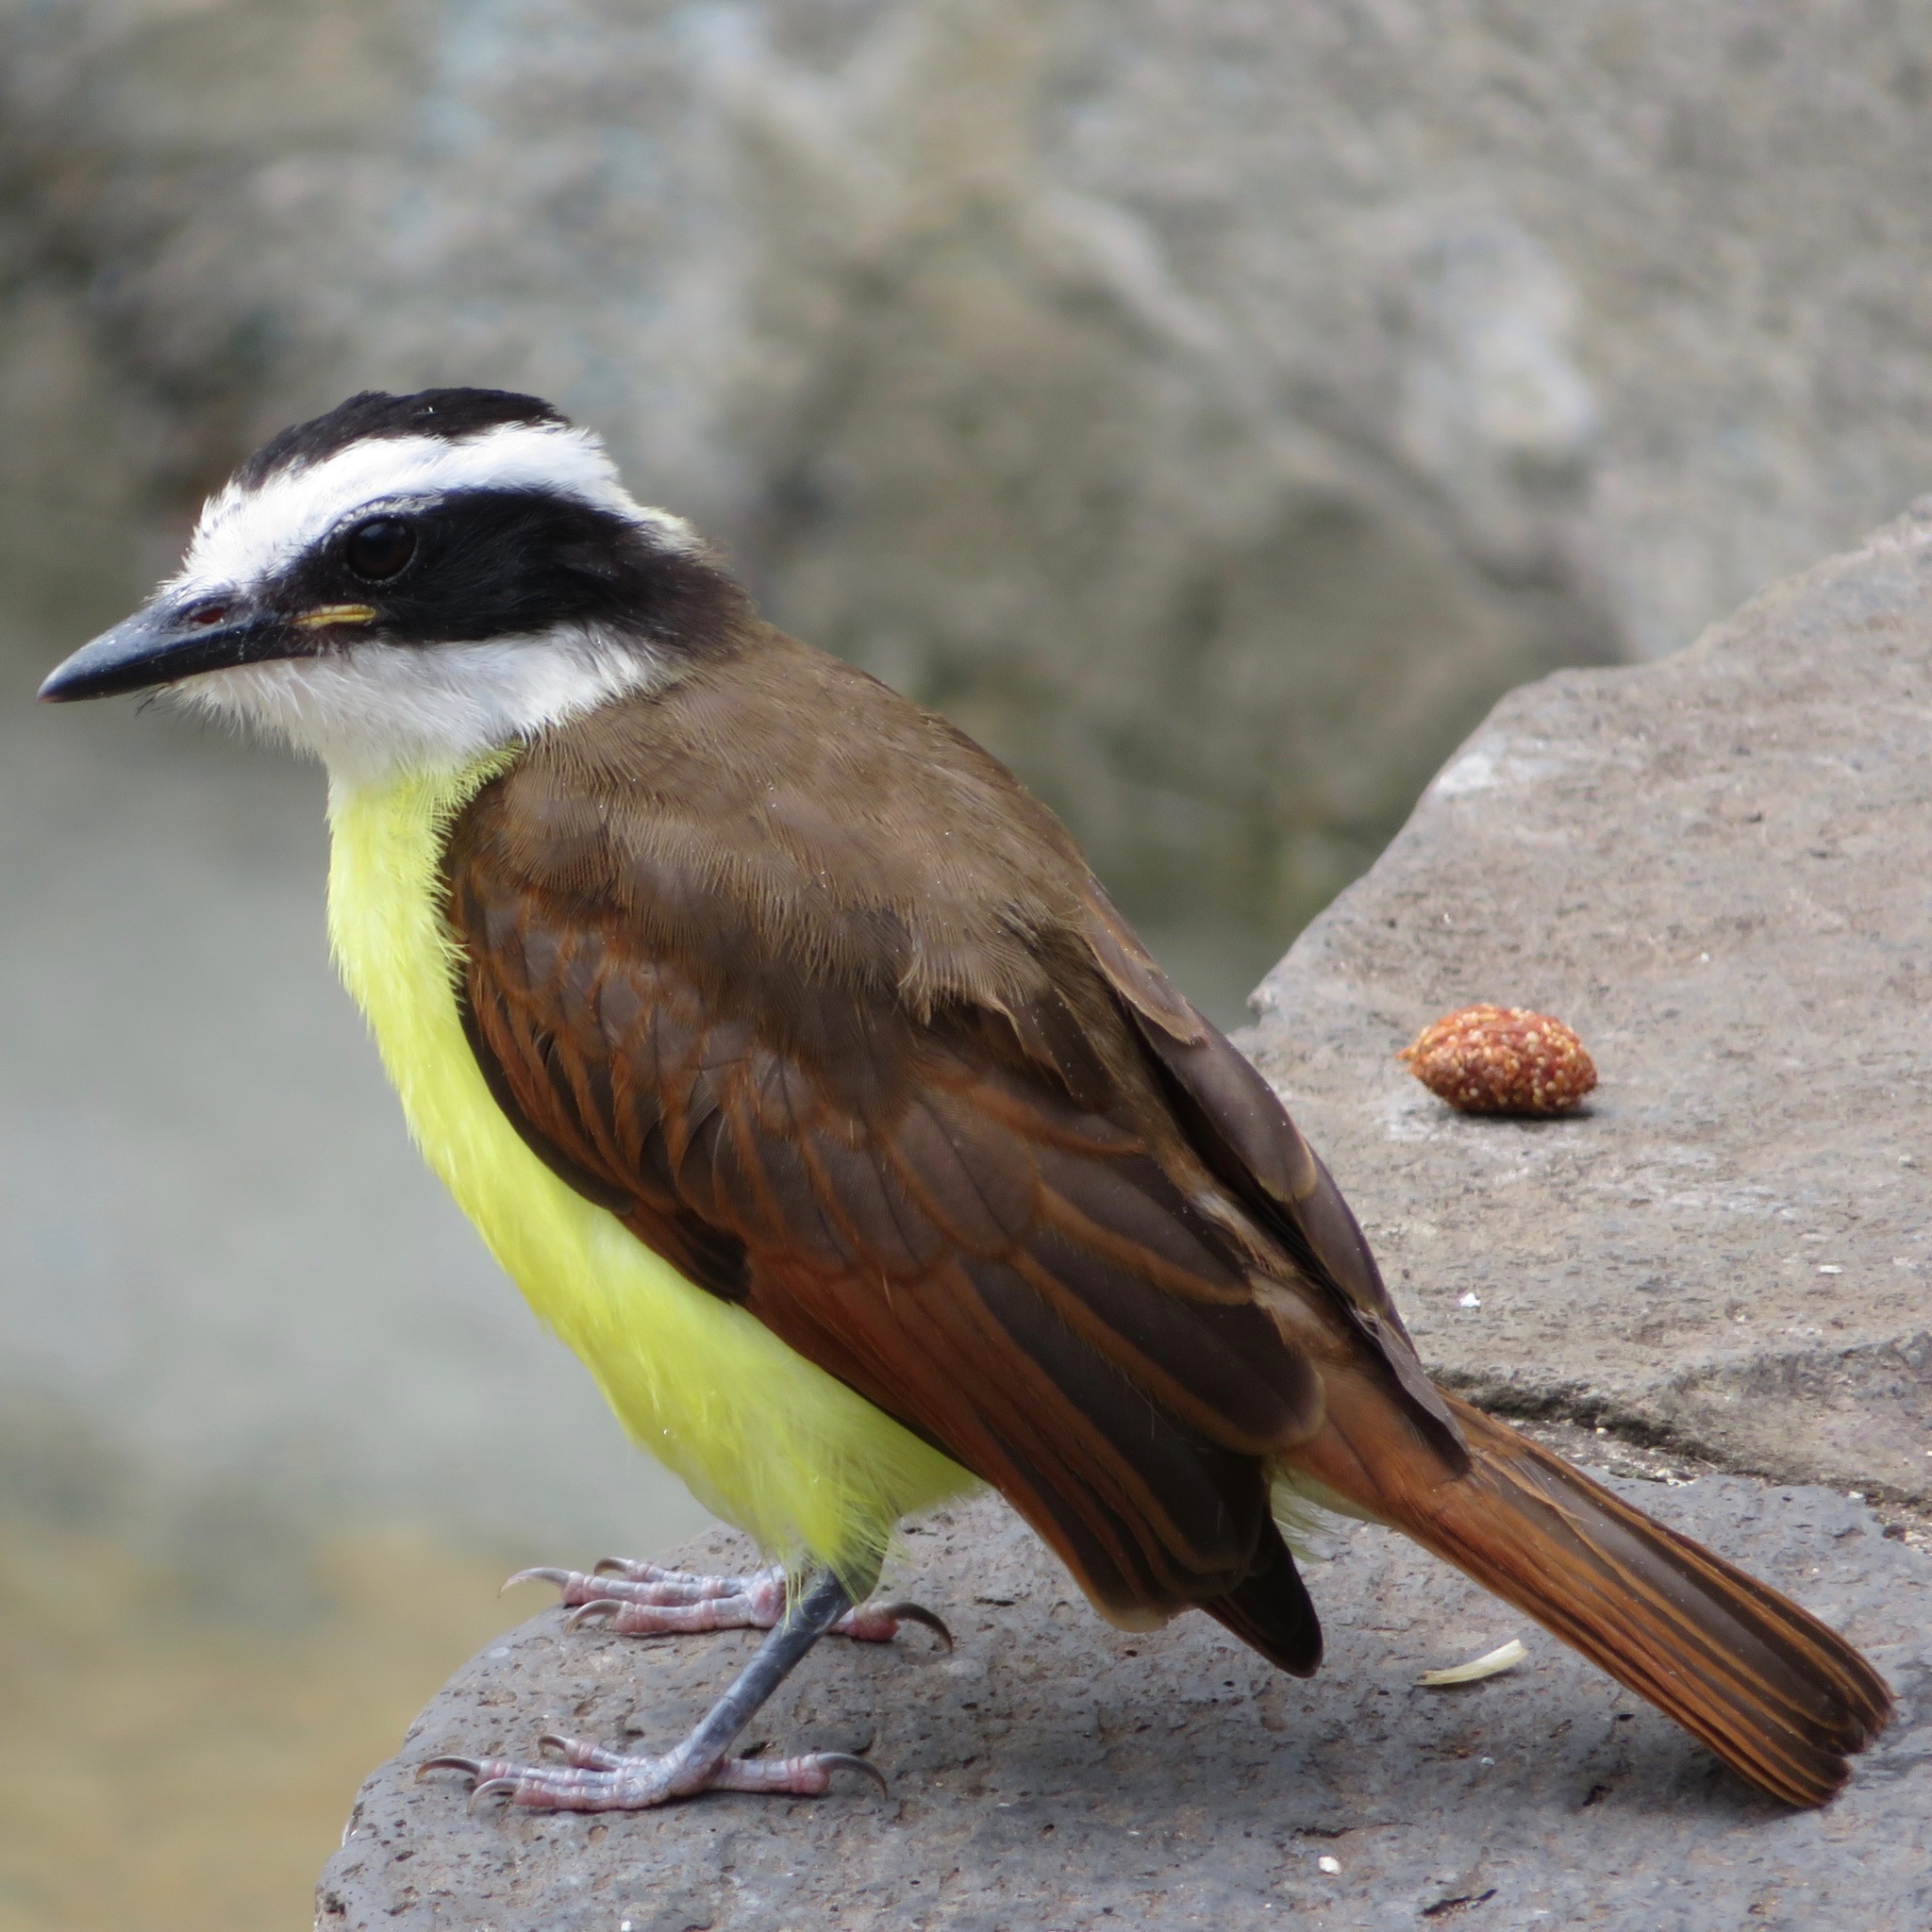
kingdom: Animalia
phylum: Chordata
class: Aves
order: Passeriformes
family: Tyrannidae
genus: Pitangus
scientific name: Pitangus sulphuratus
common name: Great kiskadee
